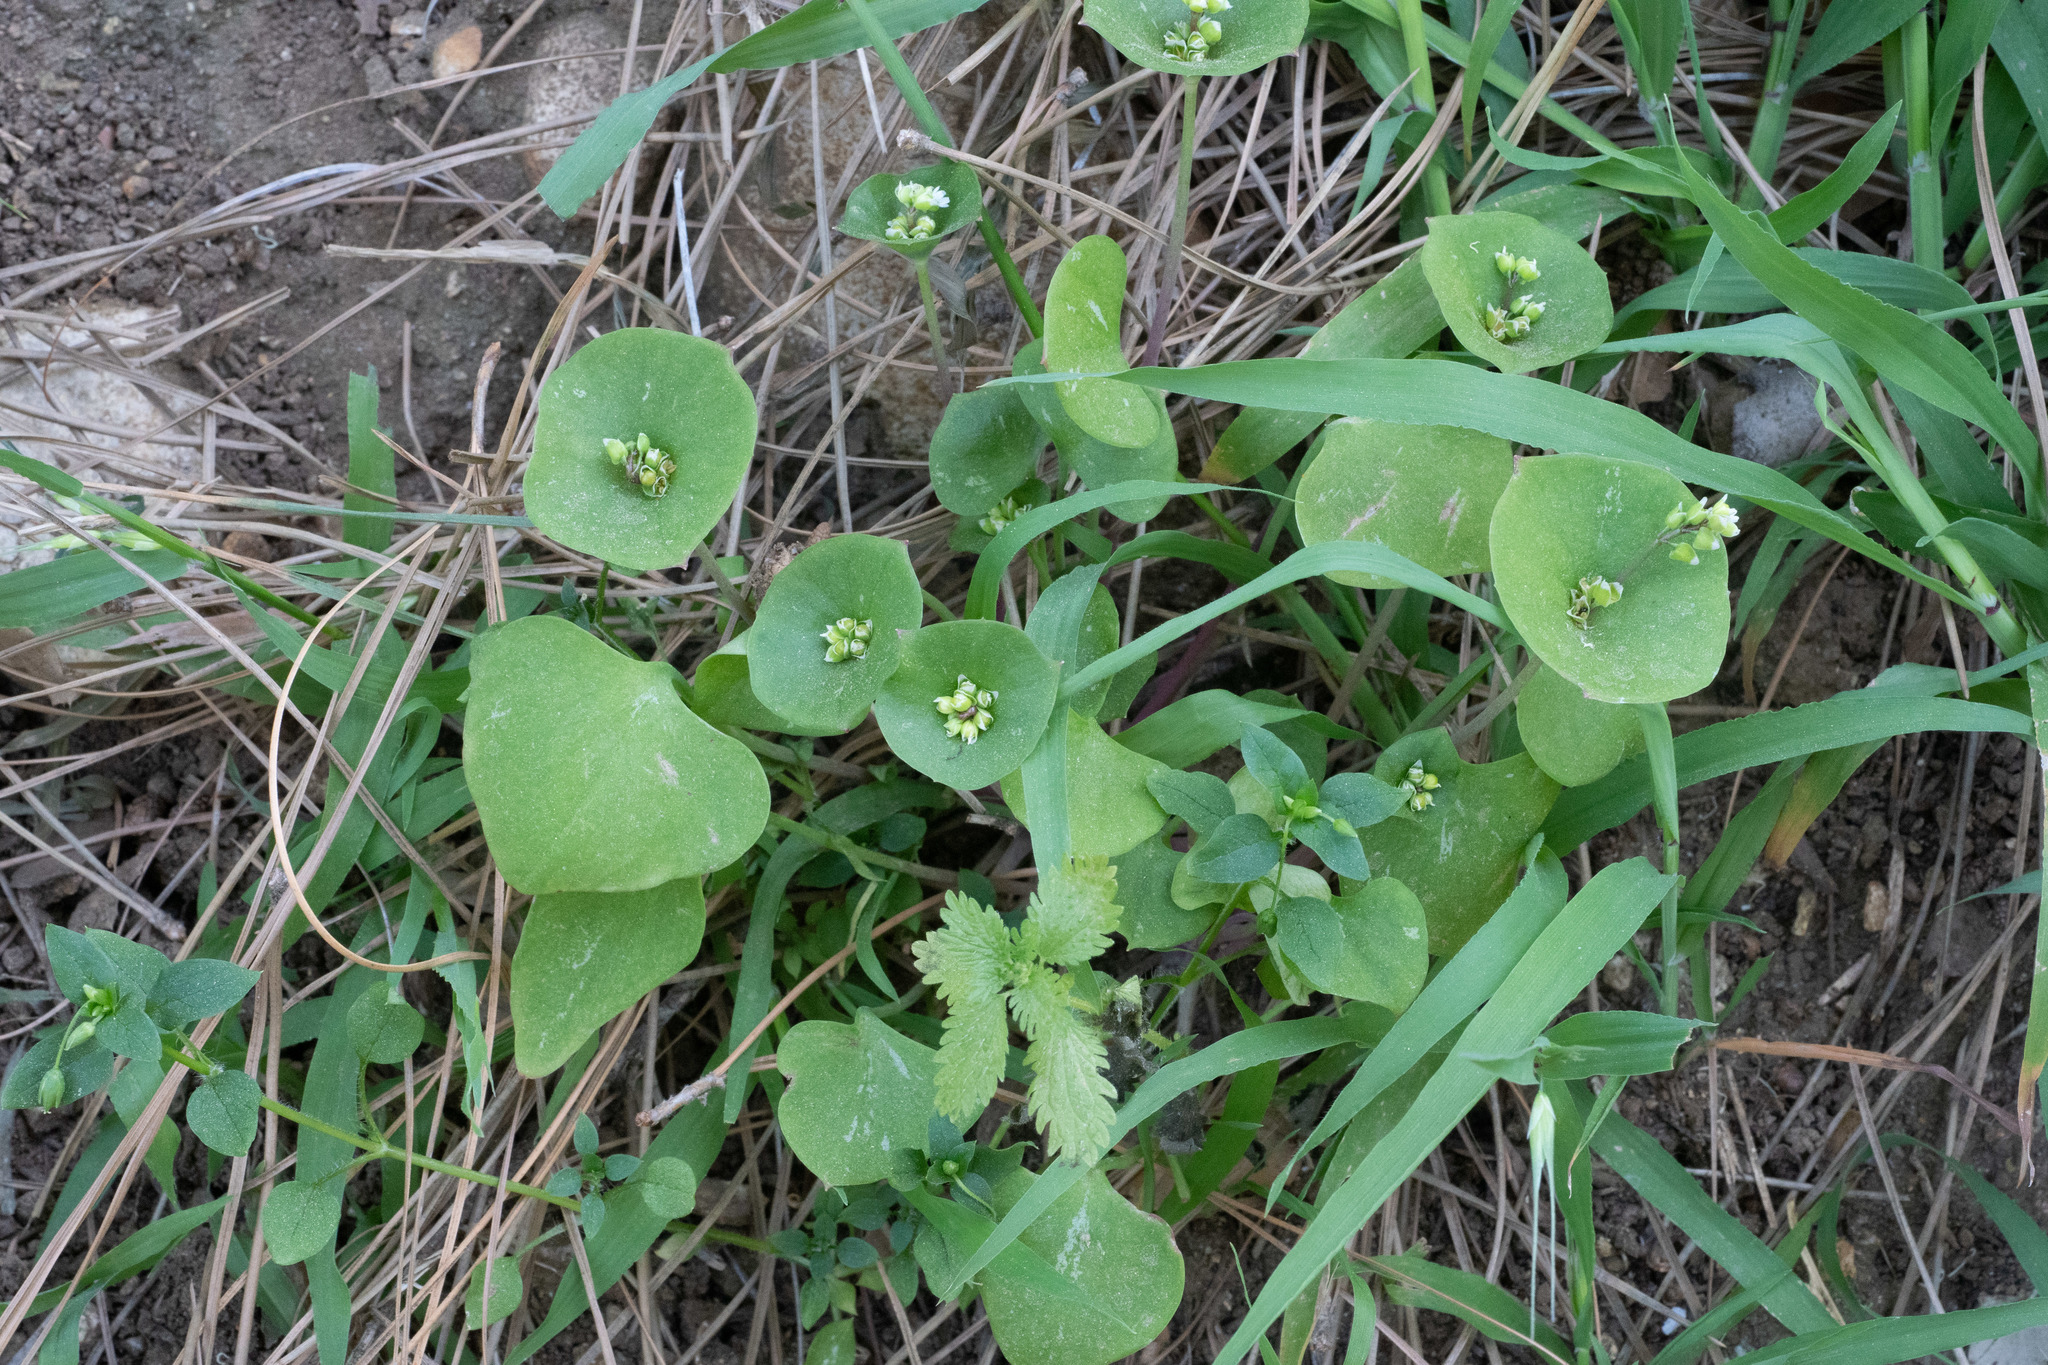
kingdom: Plantae
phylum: Tracheophyta
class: Magnoliopsida
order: Caryophyllales
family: Montiaceae
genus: Claytonia
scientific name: Claytonia perfoliata
